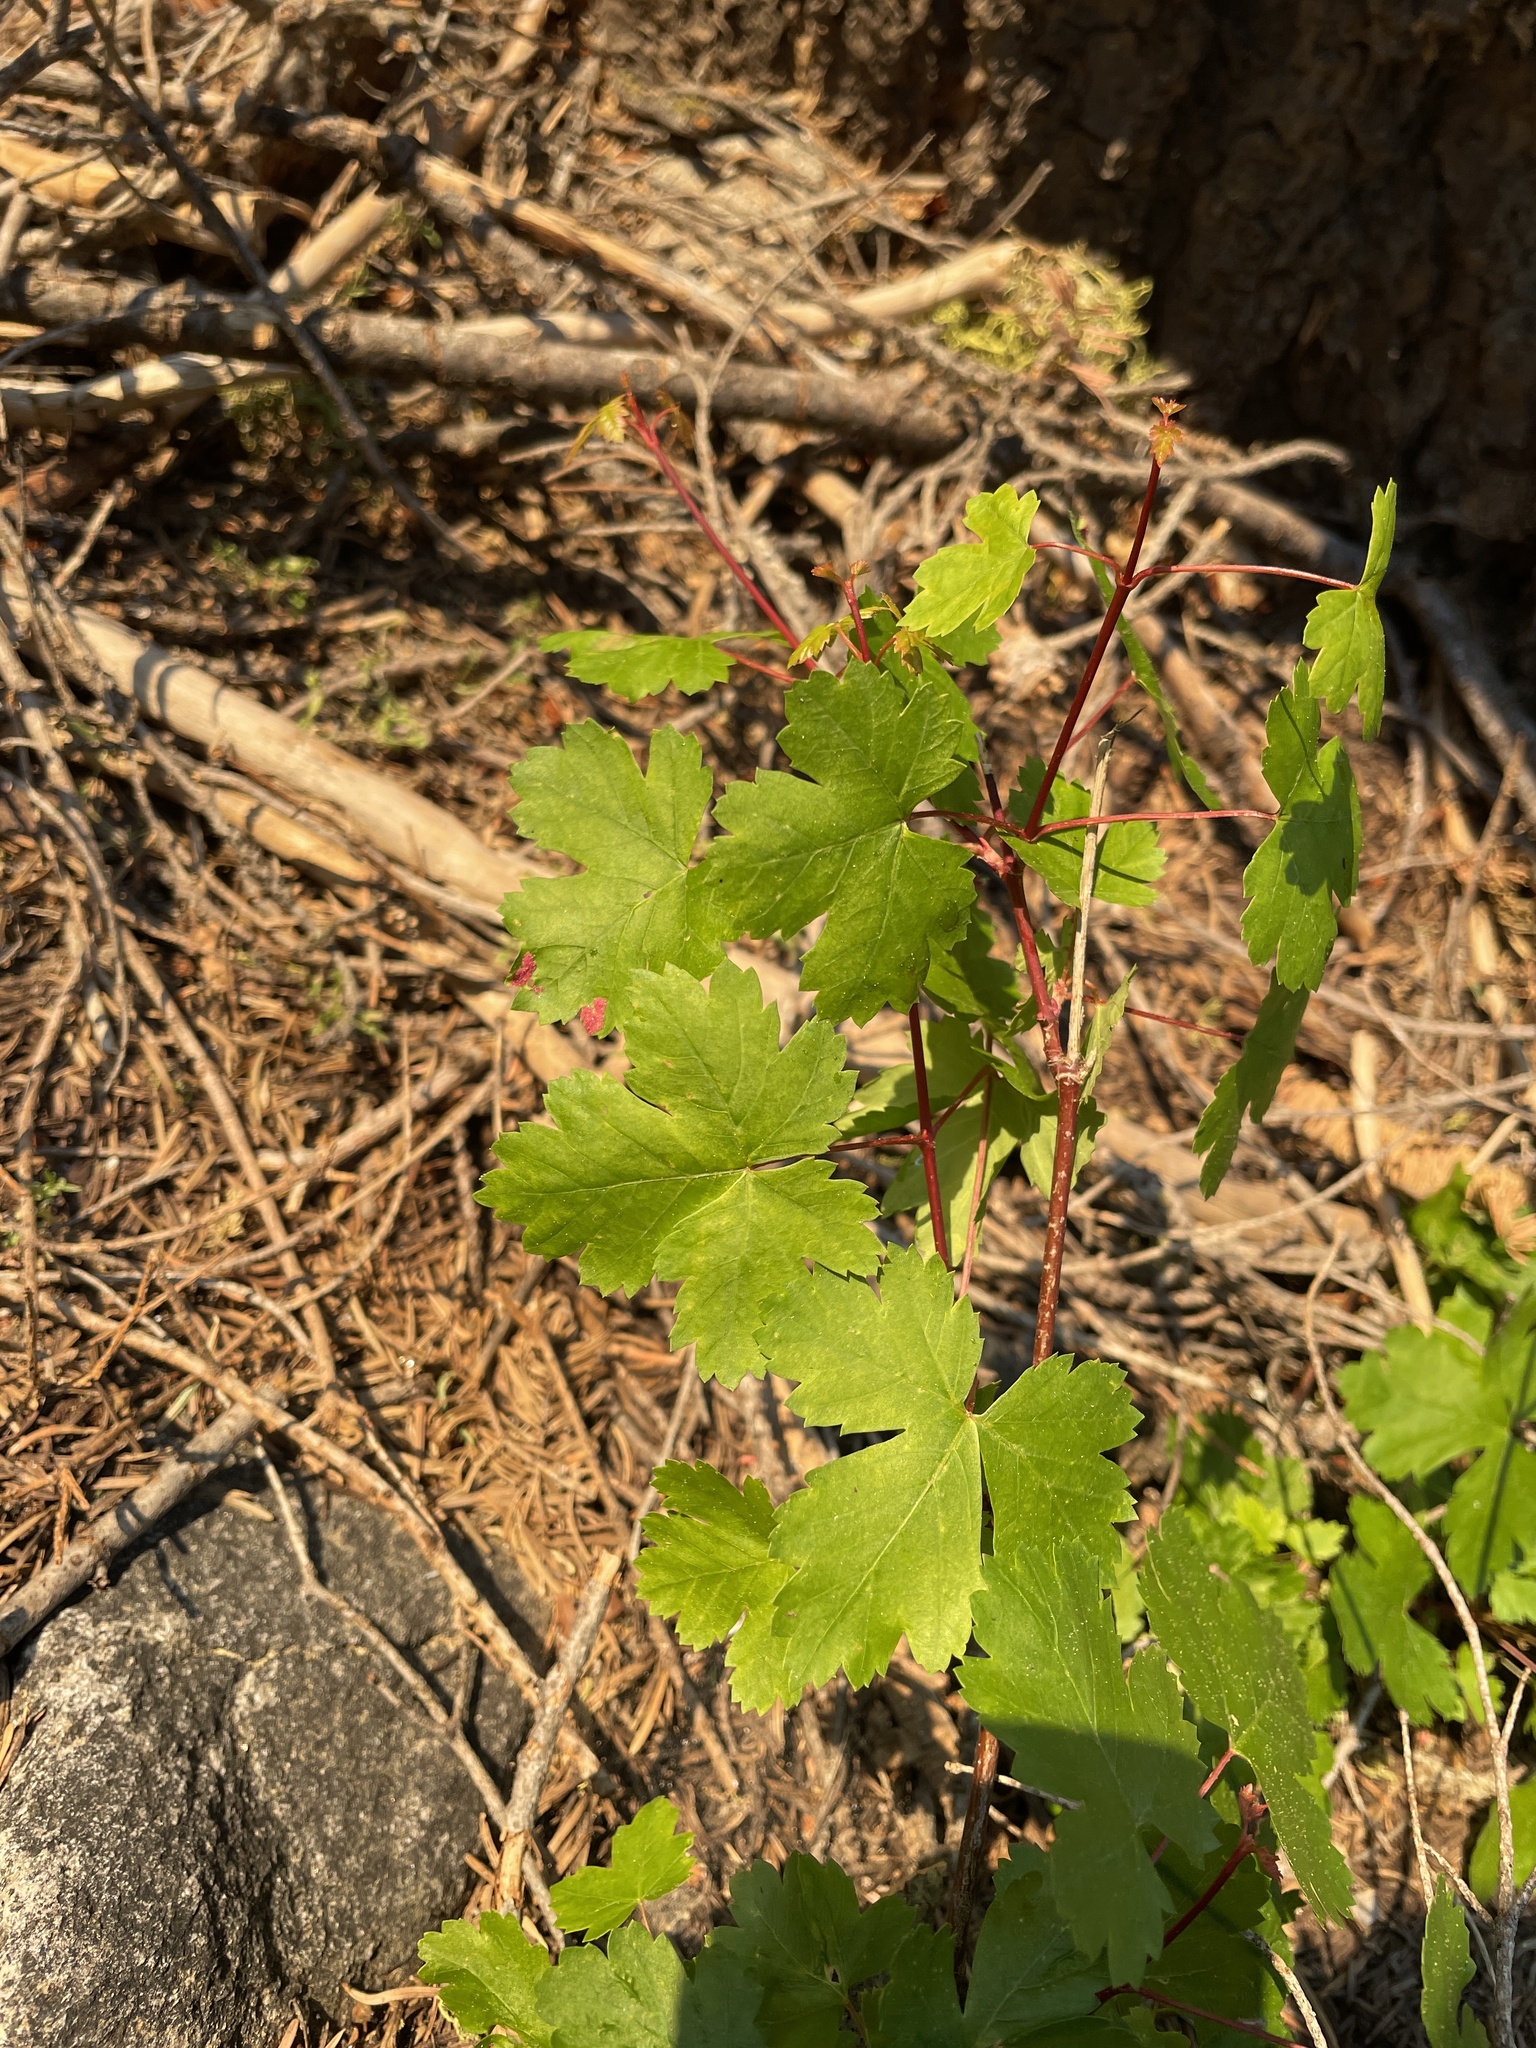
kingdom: Plantae
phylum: Tracheophyta
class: Magnoliopsida
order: Sapindales
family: Sapindaceae
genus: Acer
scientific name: Acer glabrum
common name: Rocky mountain maple
